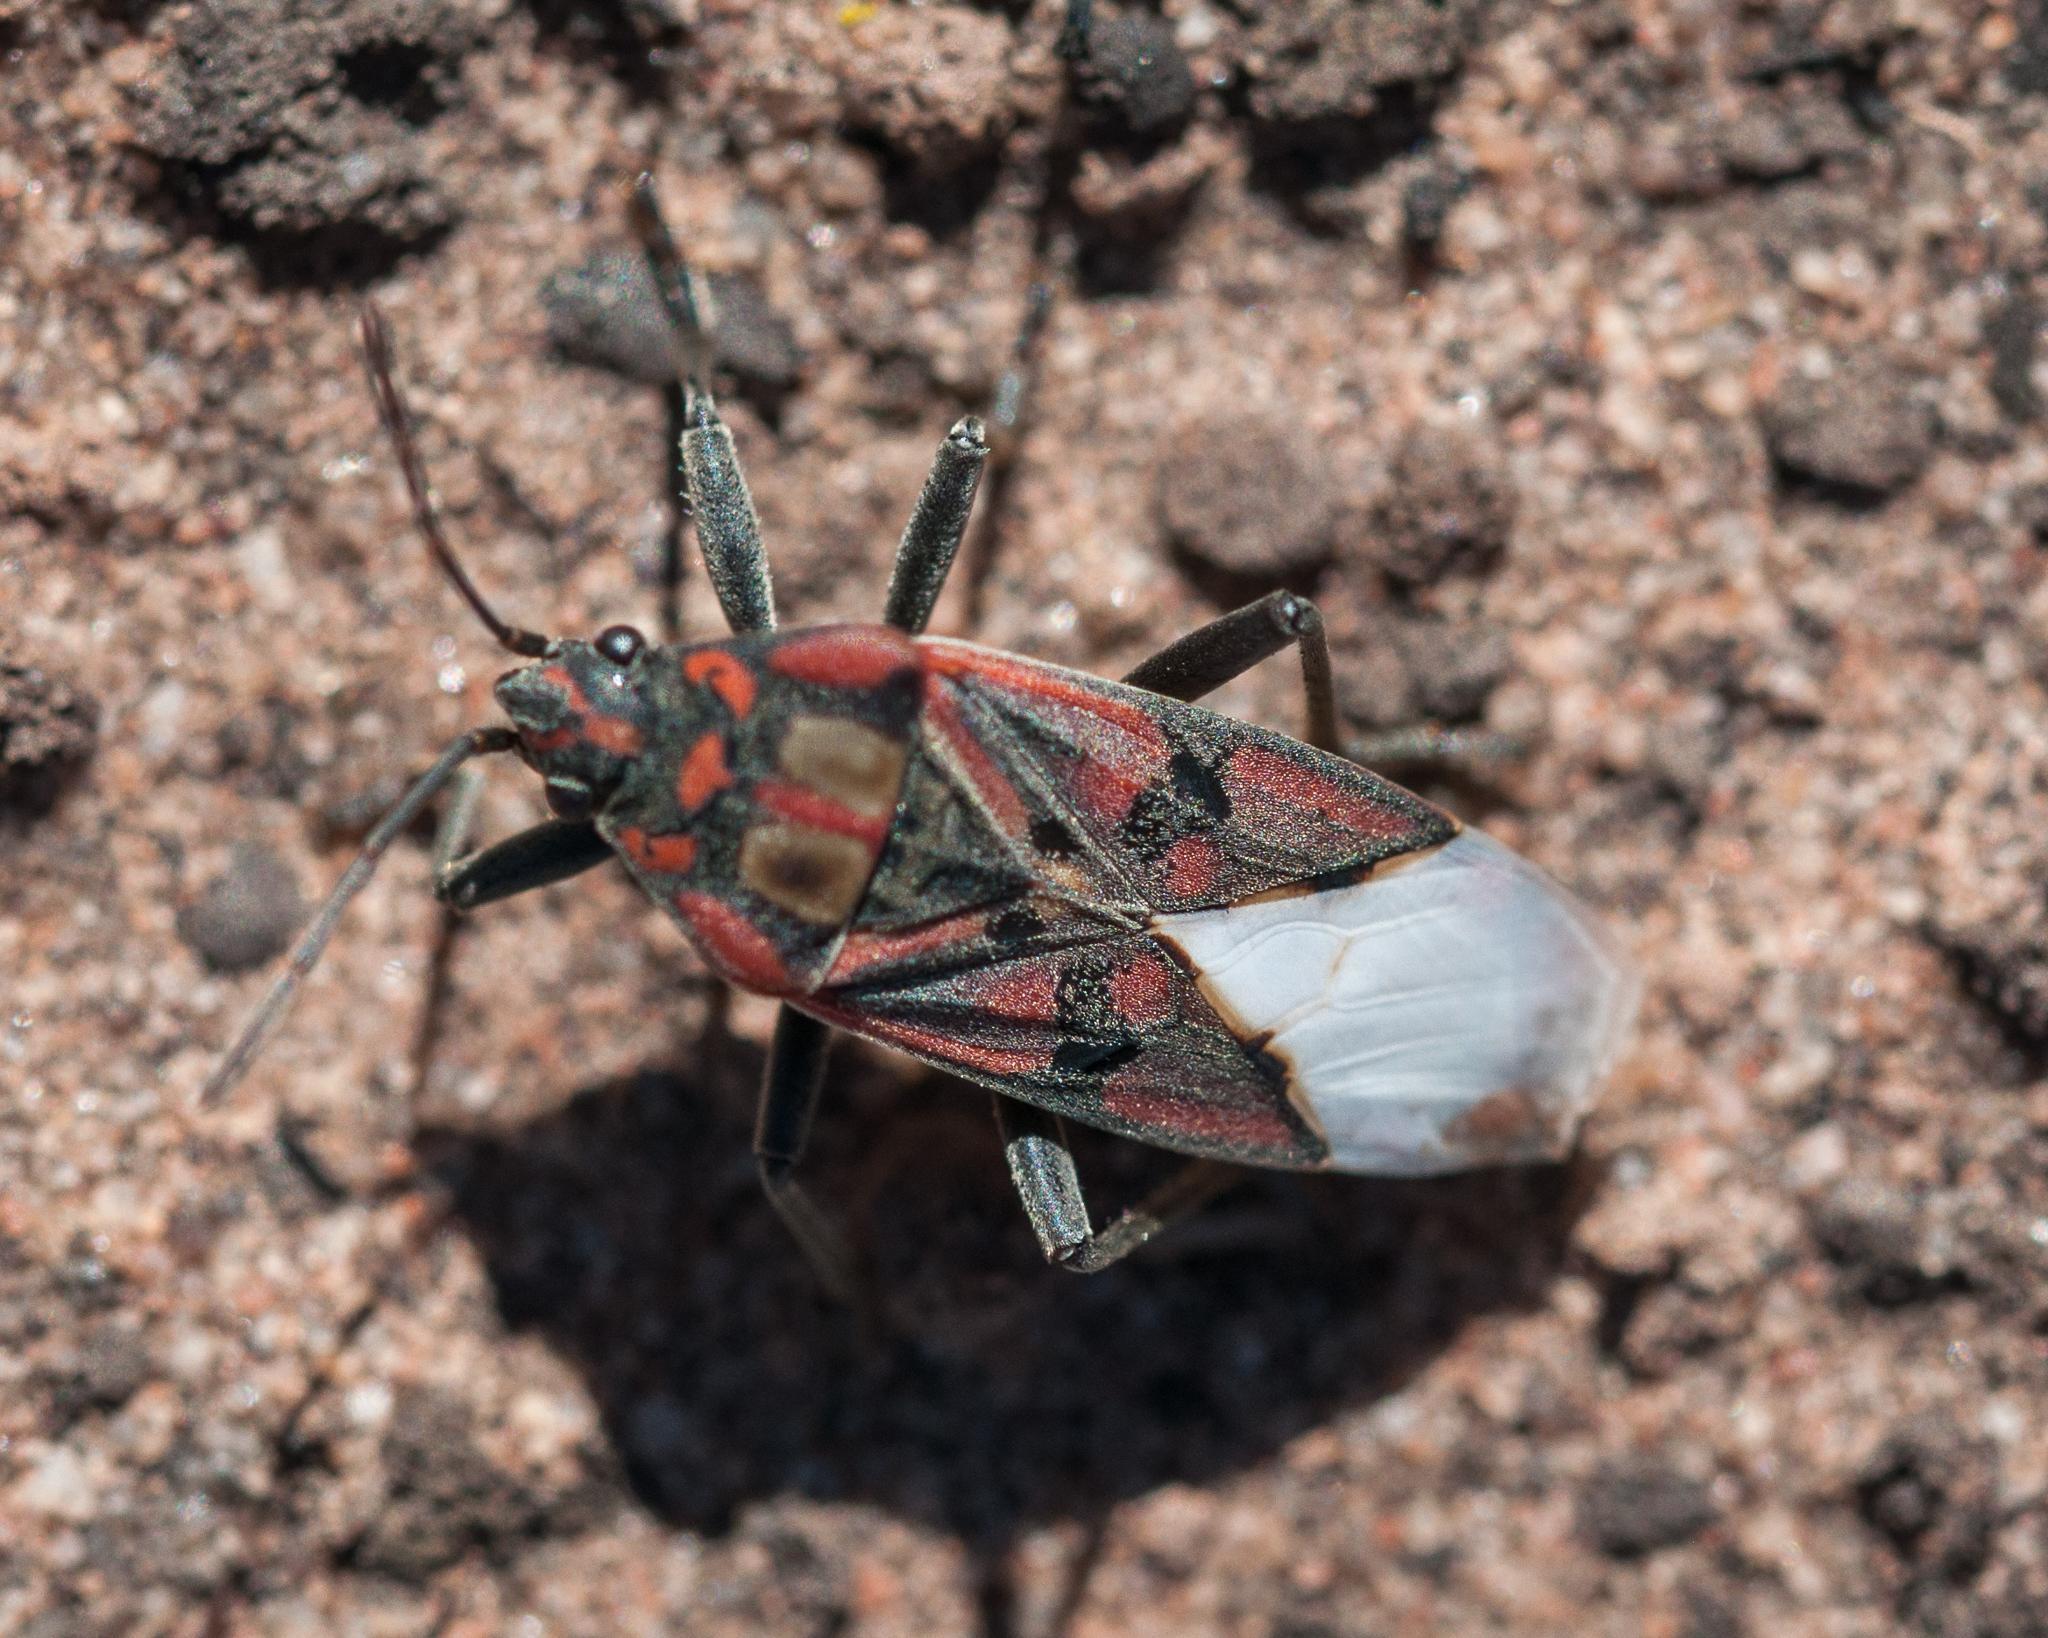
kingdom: Animalia
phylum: Arthropoda
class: Insecta
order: Hemiptera
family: Lygaeidae
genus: Spilostethus
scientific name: Spilostethus pandurus
